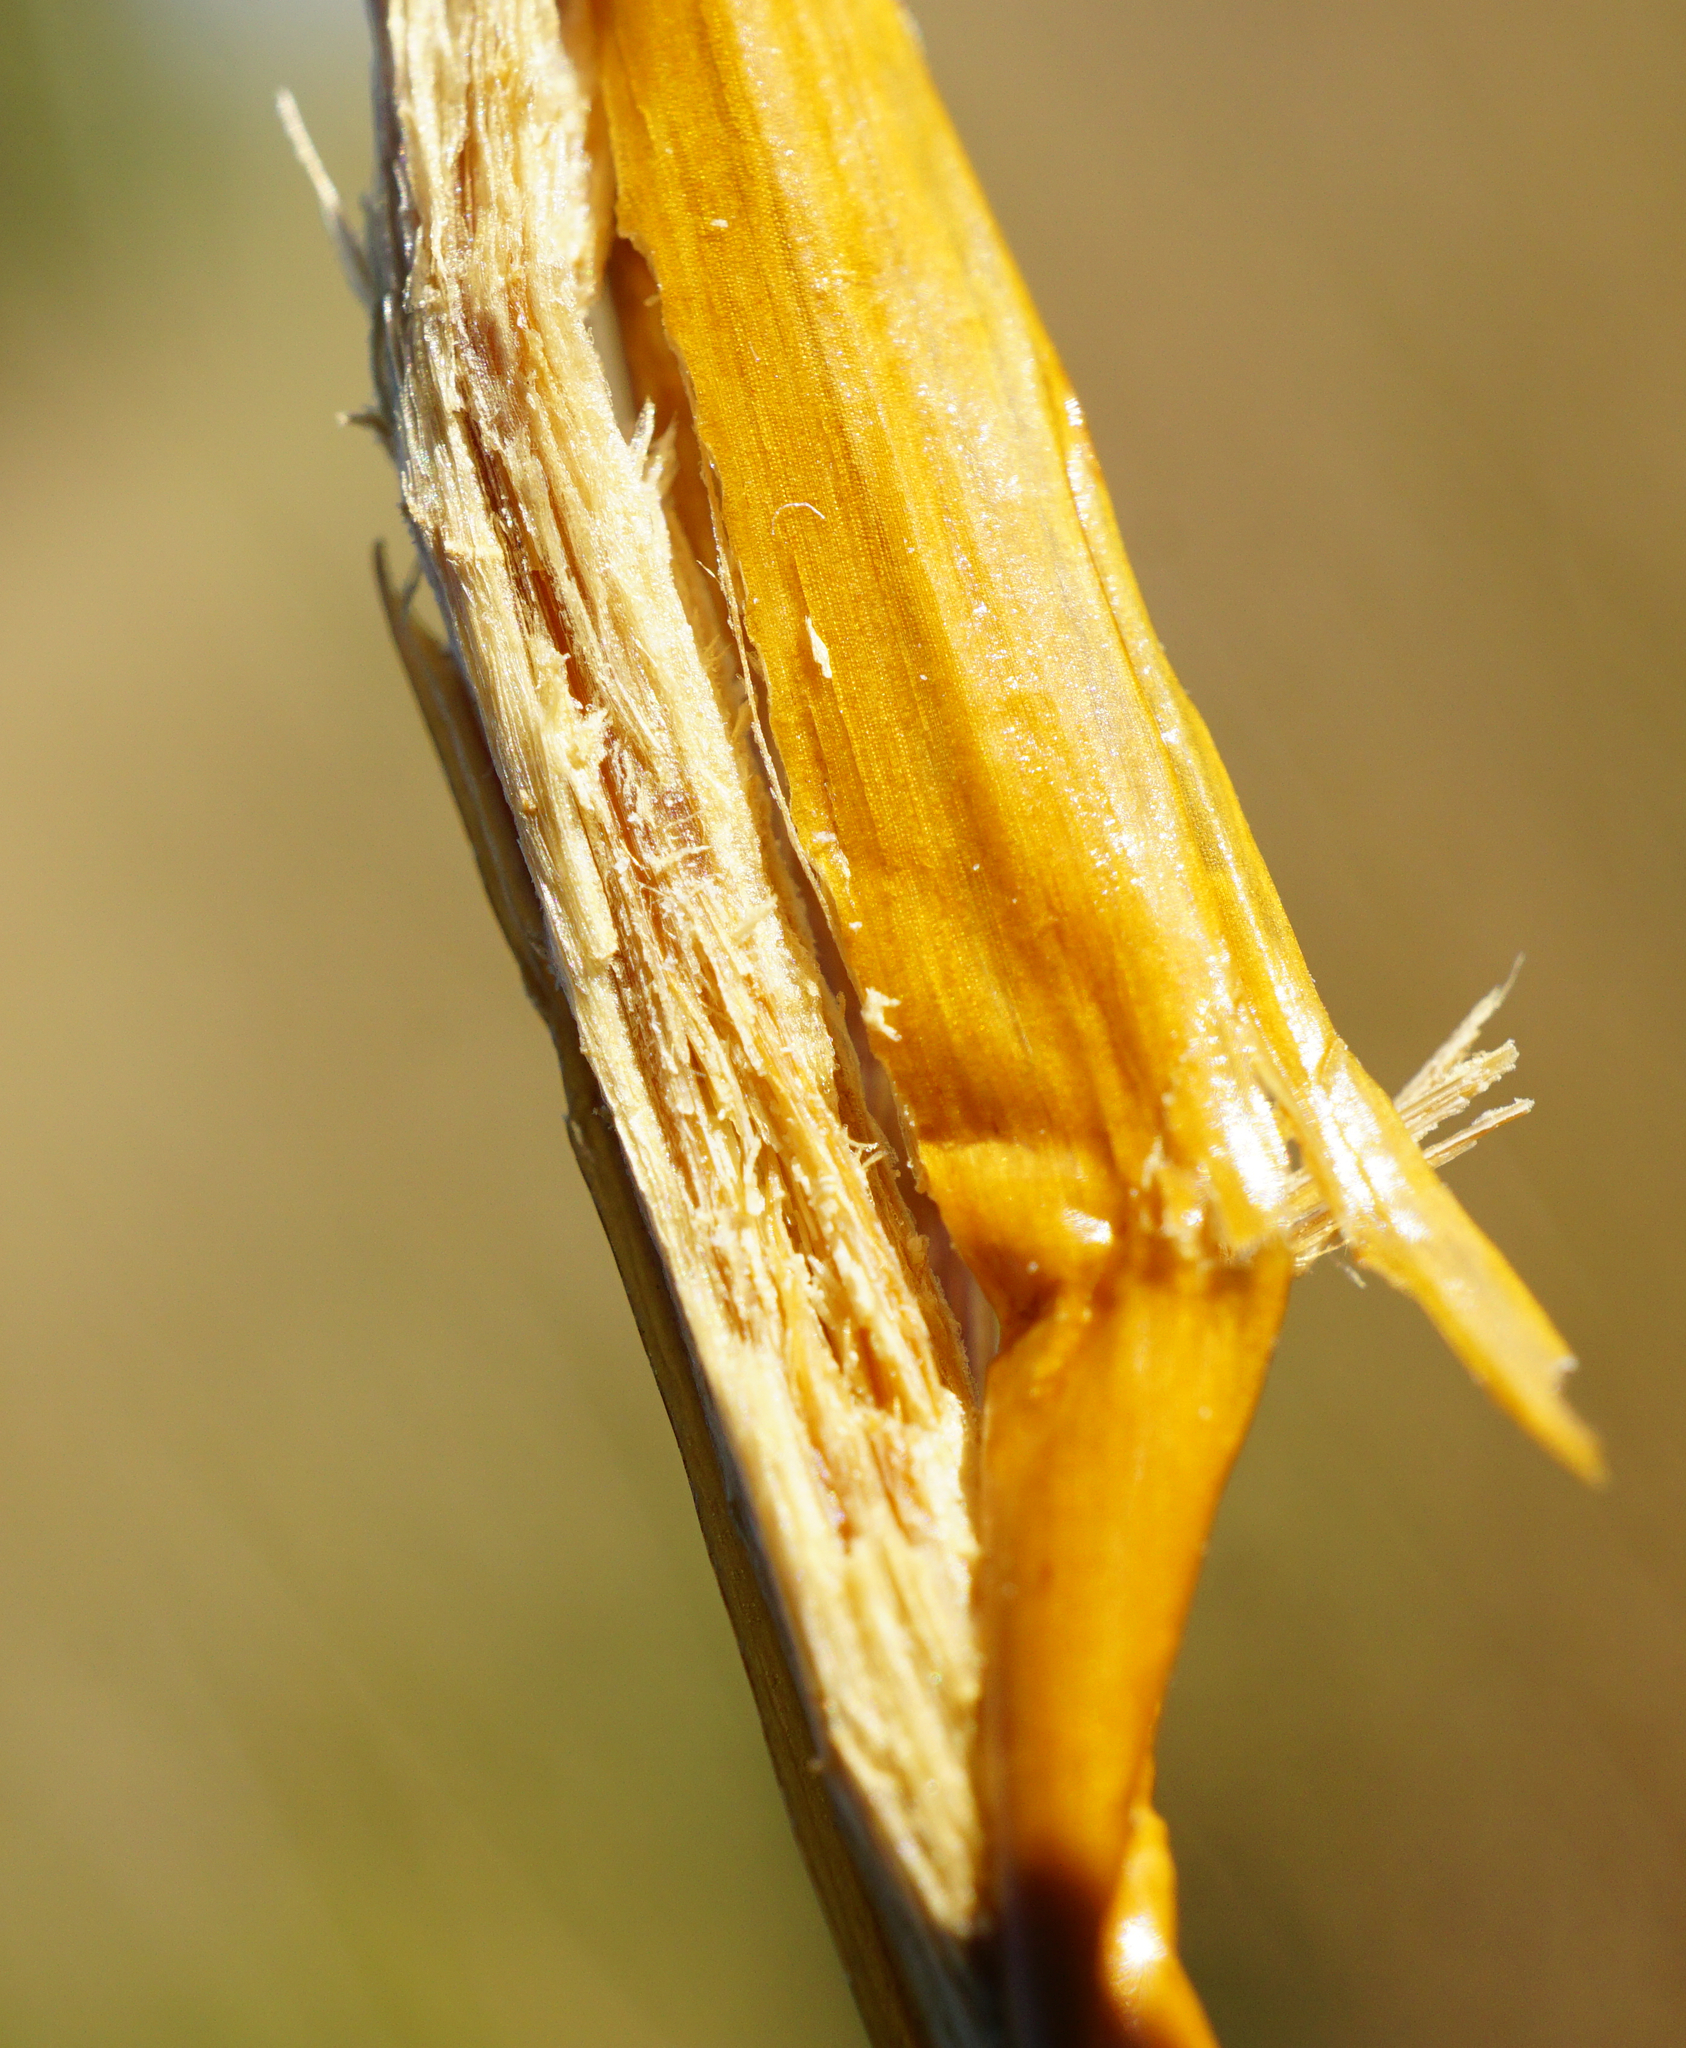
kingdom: Plantae
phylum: Tracheophyta
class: Liliopsida
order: Poales
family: Juncaceae
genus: Juncus
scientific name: Juncus subnodulosus
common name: Blunt-flowered rush
